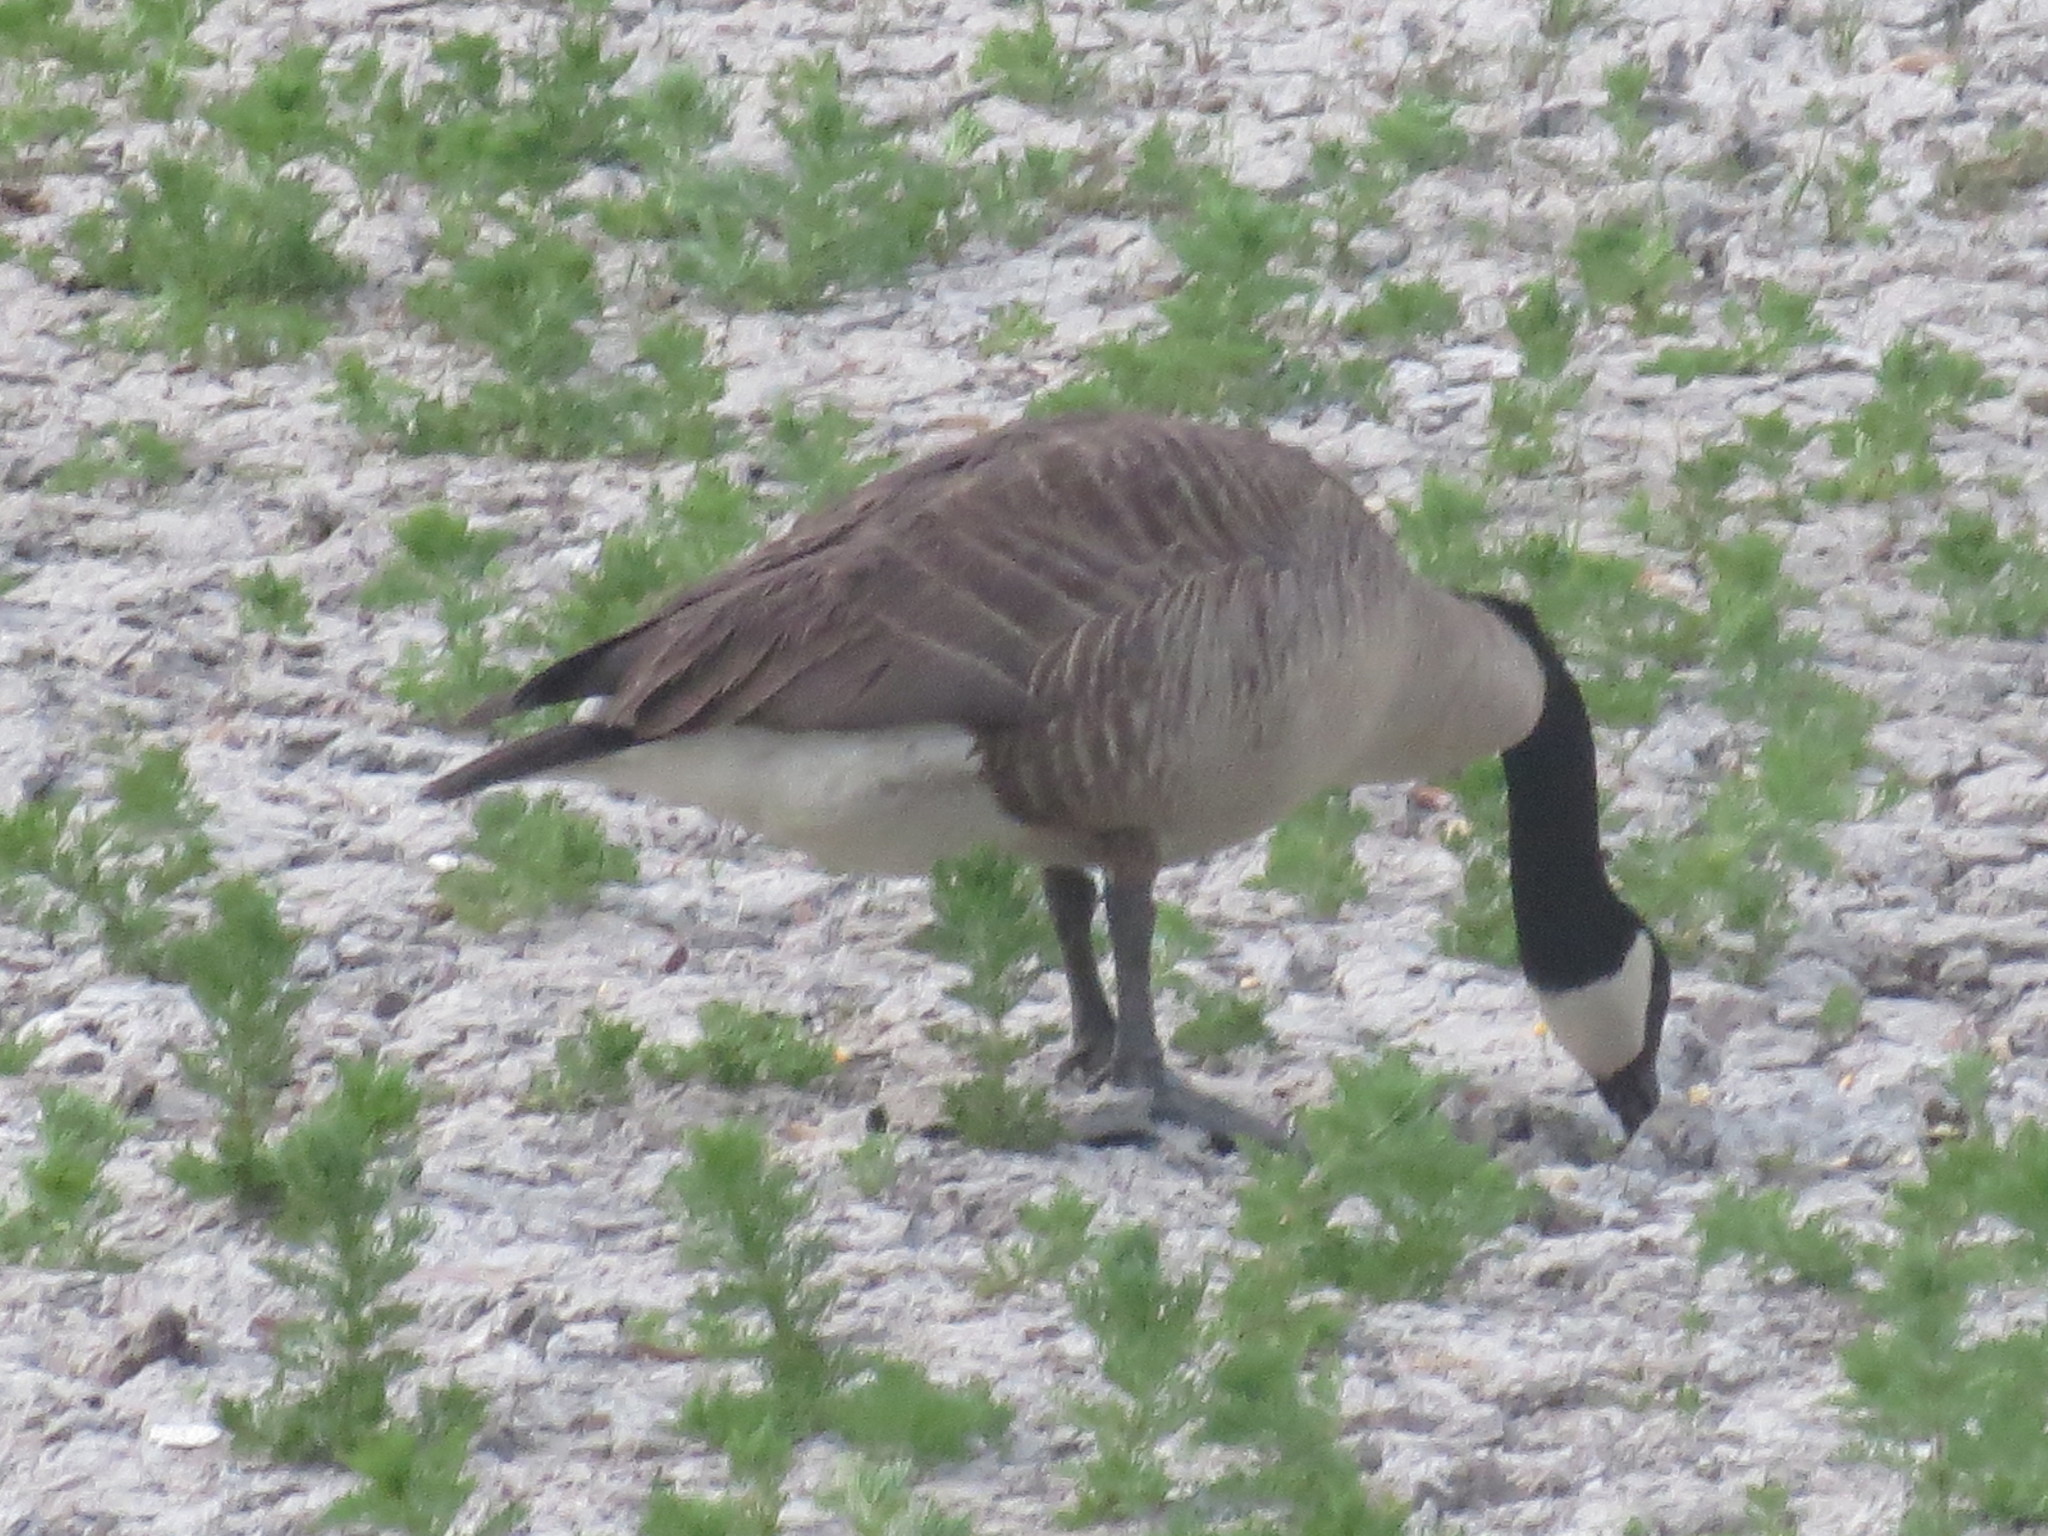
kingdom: Animalia
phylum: Chordata
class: Aves
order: Anseriformes
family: Anatidae
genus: Branta
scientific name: Branta canadensis
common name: Canada goose
